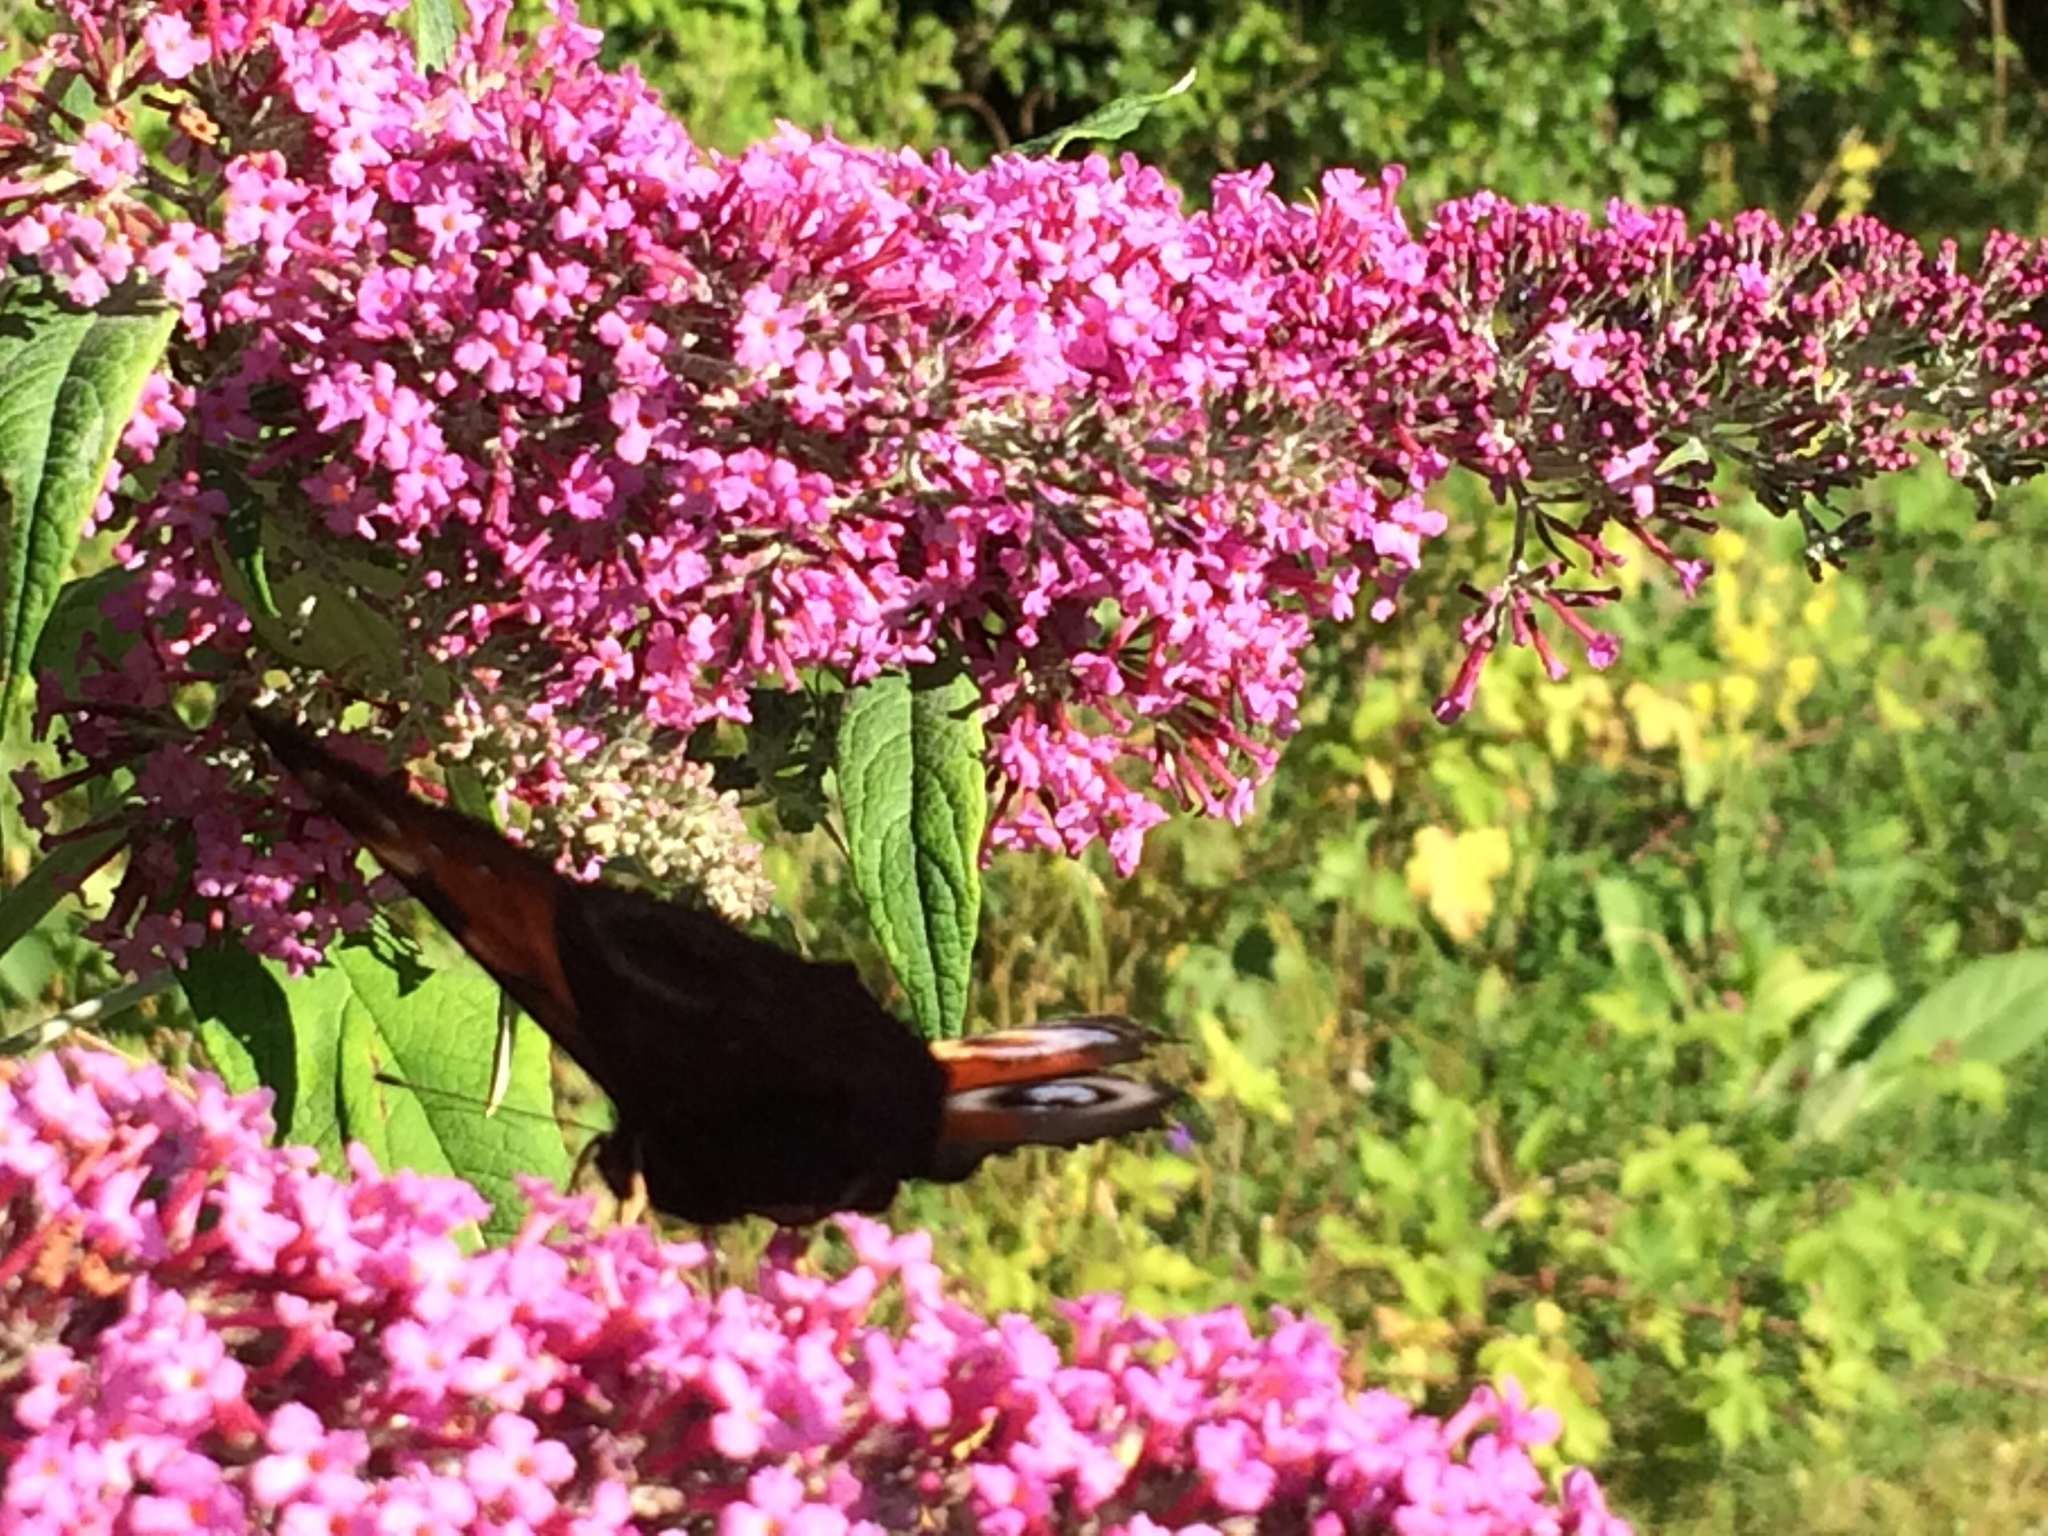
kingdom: Animalia
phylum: Arthropoda
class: Insecta
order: Lepidoptera
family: Nymphalidae
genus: Aglais
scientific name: Aglais io
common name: Peacock
